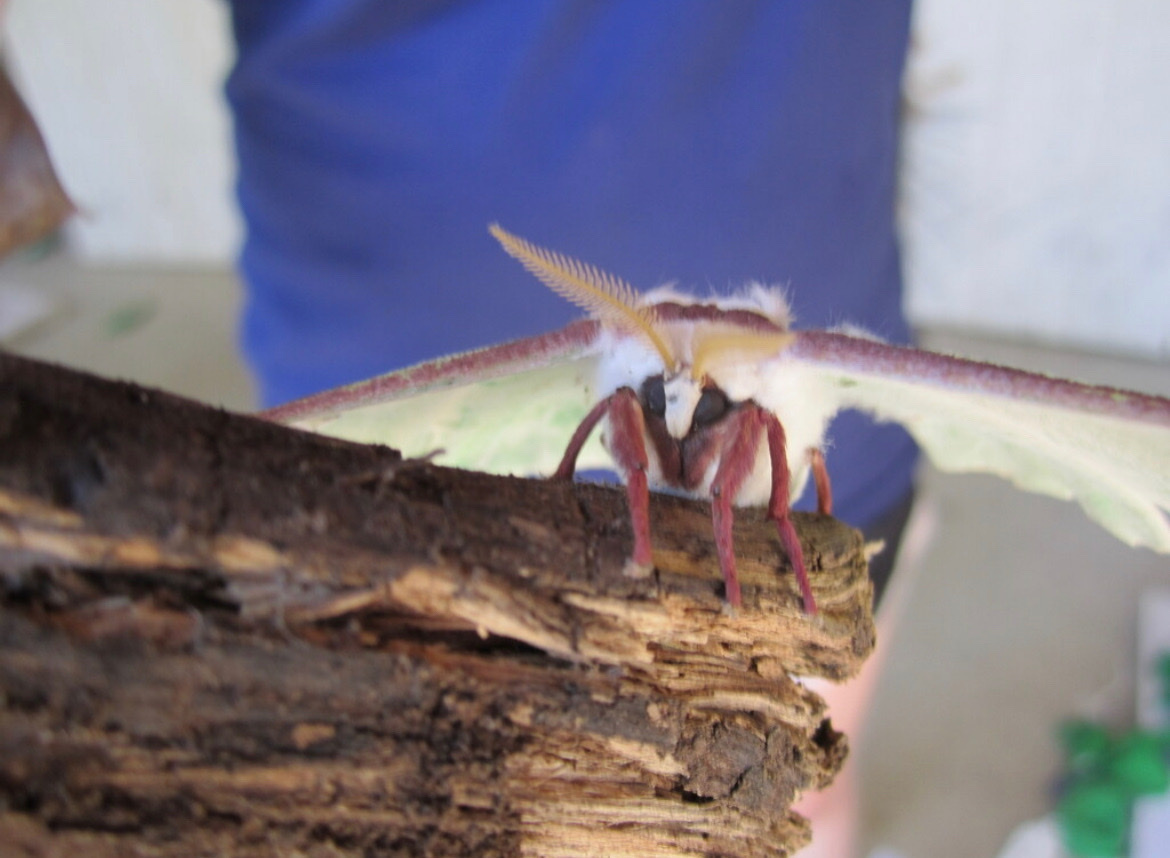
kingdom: Animalia
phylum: Arthropoda
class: Insecta
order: Lepidoptera
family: Saturniidae
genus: Actias
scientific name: Actias luna
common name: Luna moth
